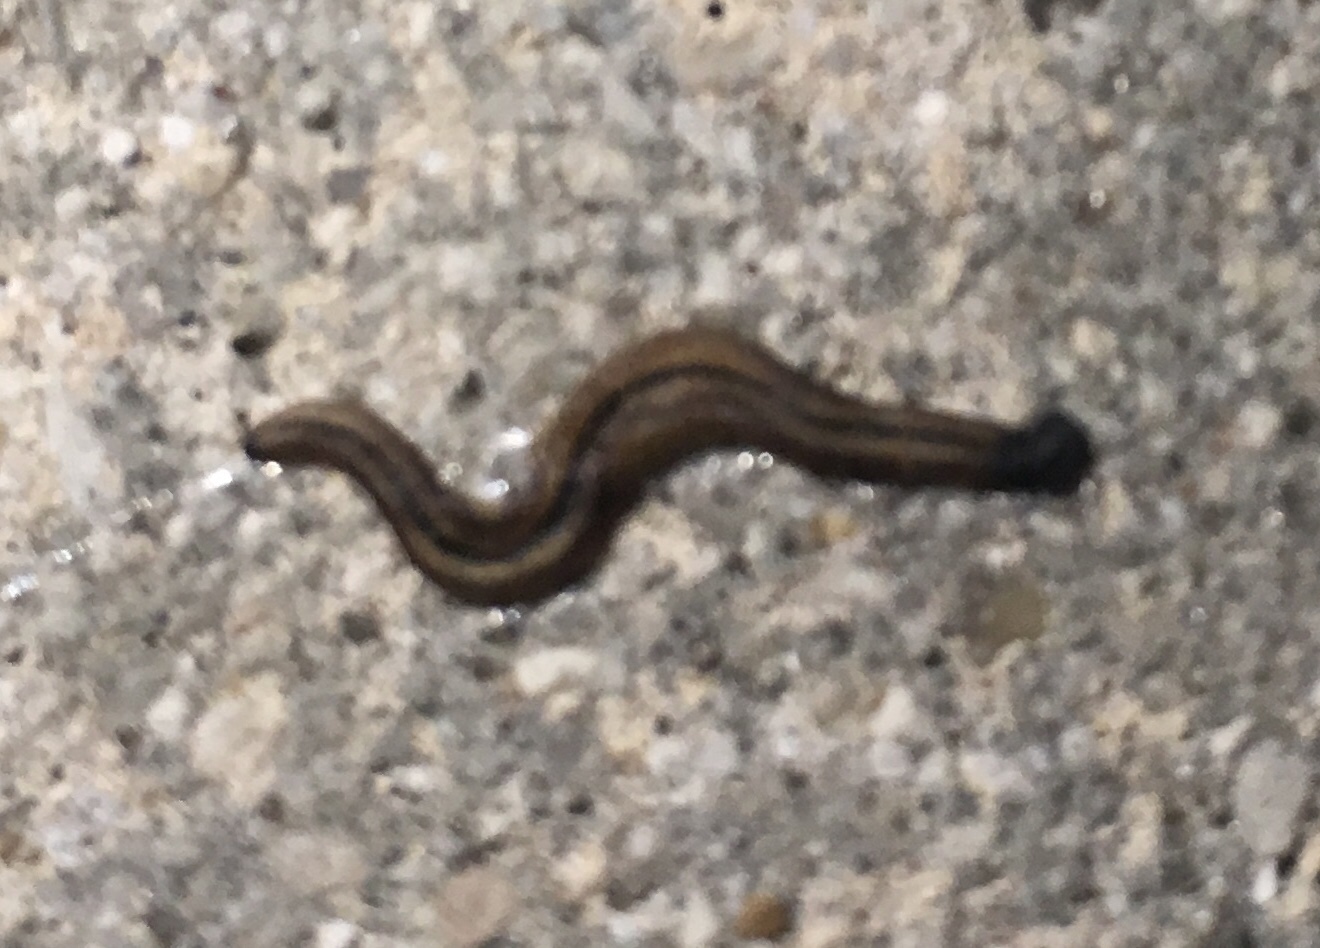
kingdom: Animalia
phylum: Platyhelminthes
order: Tricladida
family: Geoplanidae
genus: Bipalium
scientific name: Bipalium vagum
